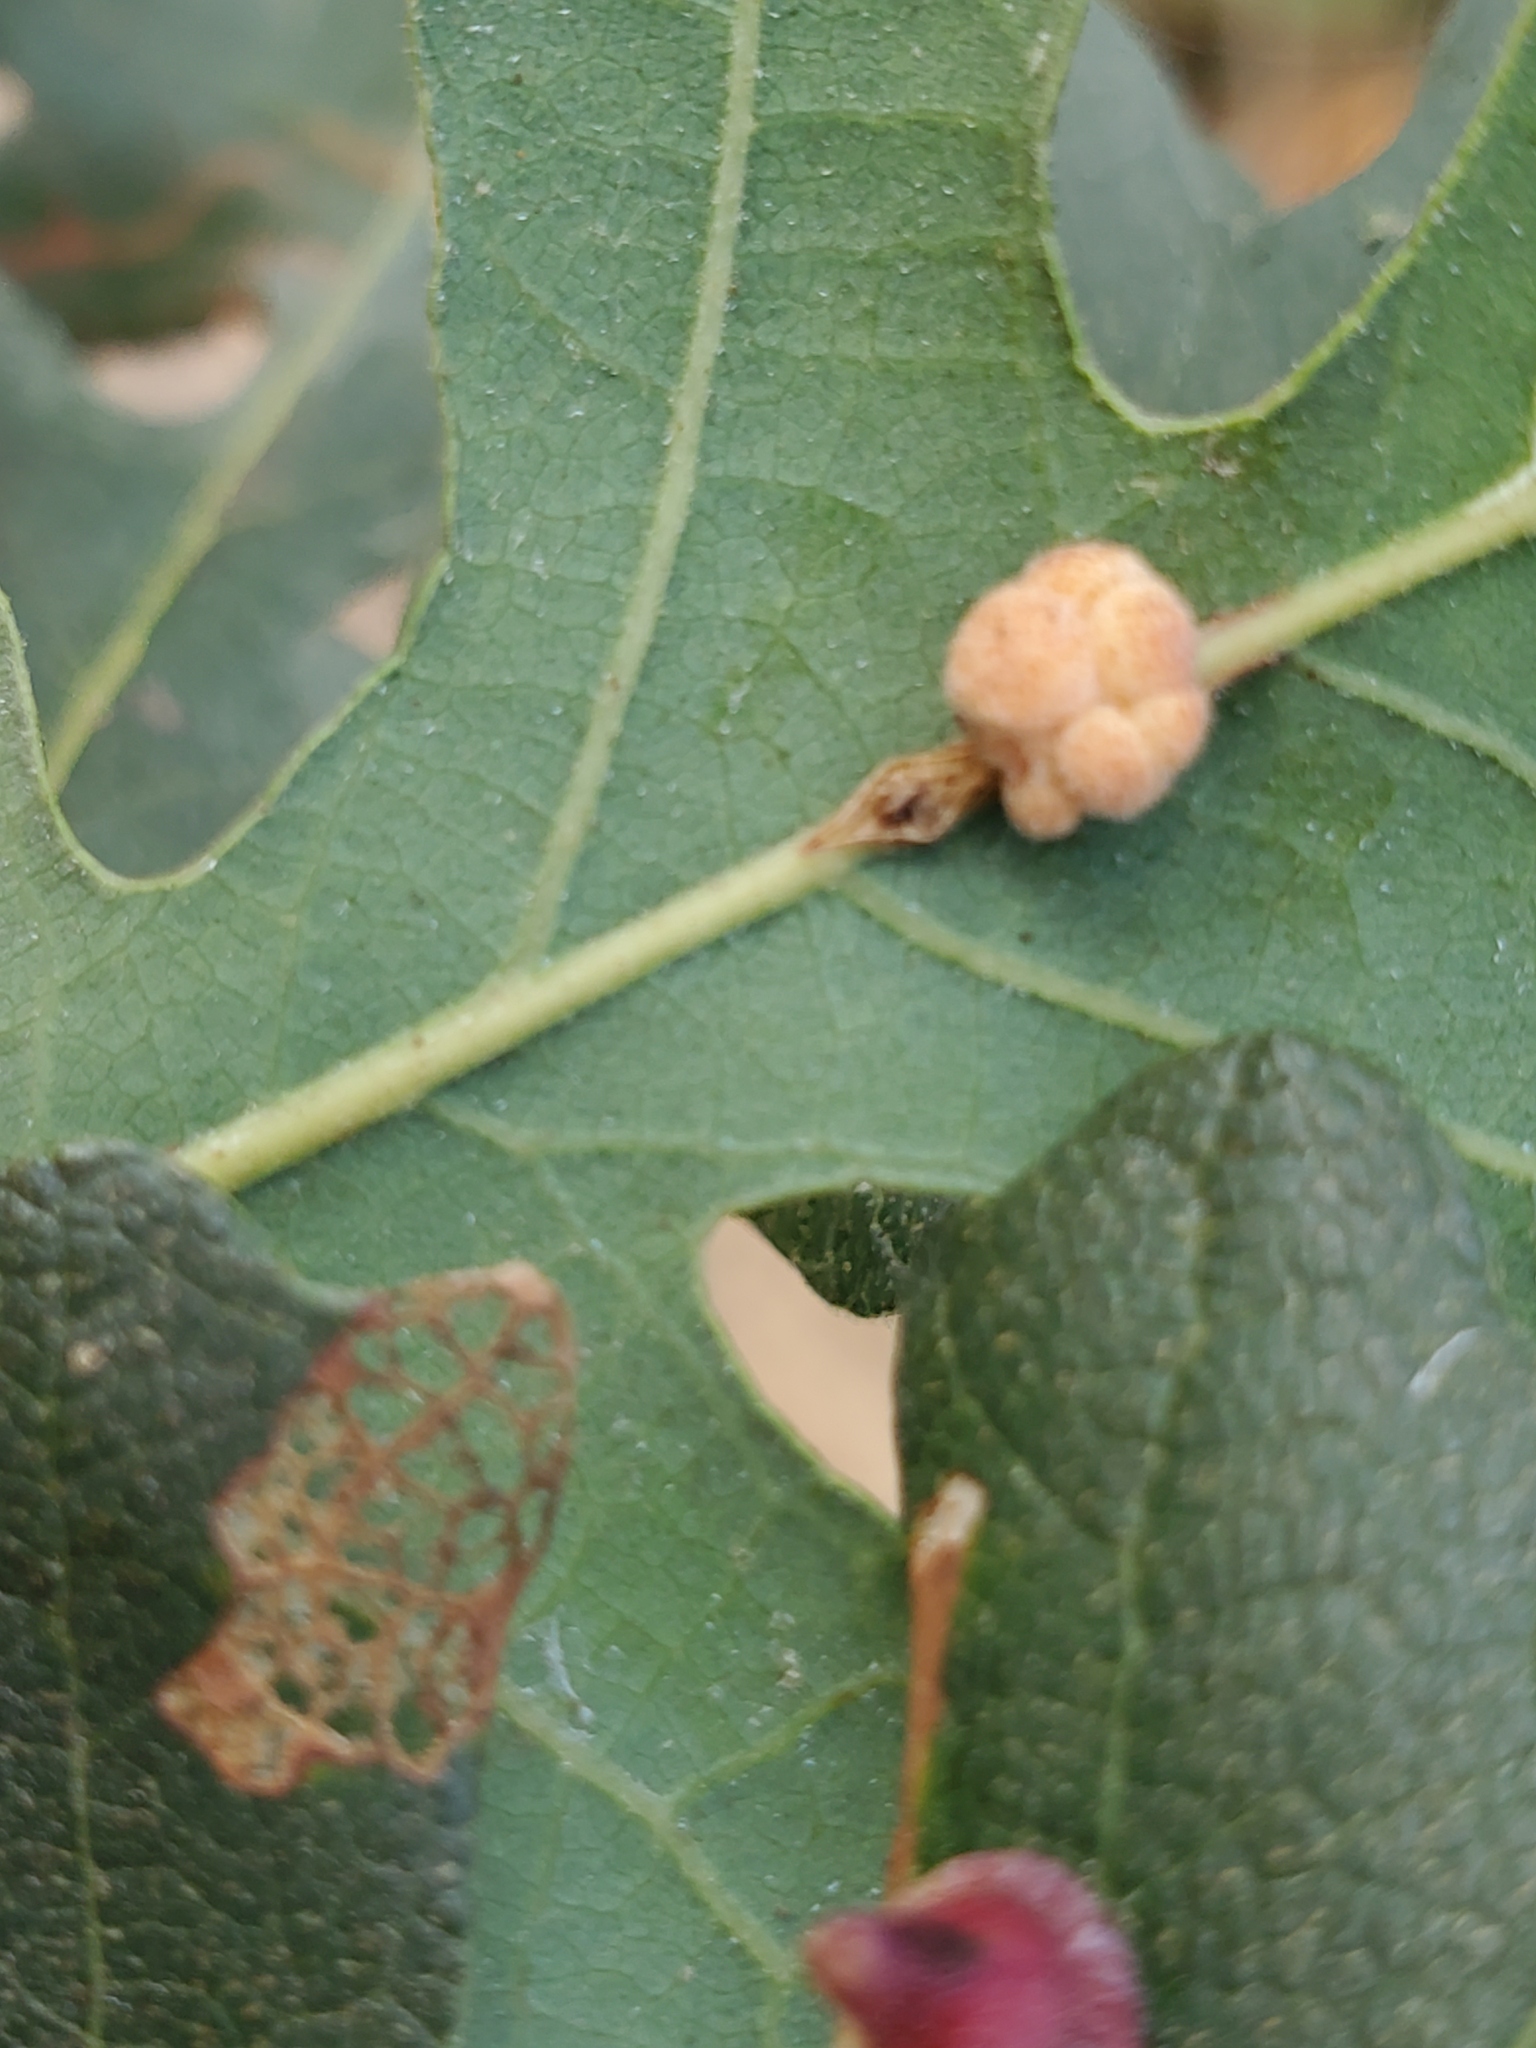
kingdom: Plantae
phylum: Tracheophyta
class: Magnoliopsida
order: Fagales
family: Fagaceae
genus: Quercus
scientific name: Quercus lobata
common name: Valley oak
